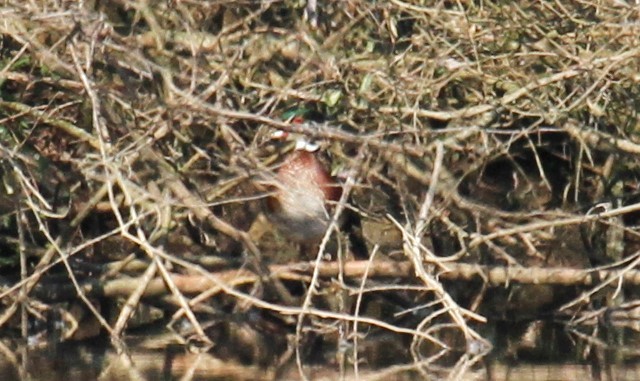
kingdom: Animalia
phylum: Chordata
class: Aves
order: Anseriformes
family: Anatidae
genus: Aix
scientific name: Aix sponsa
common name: Wood duck
